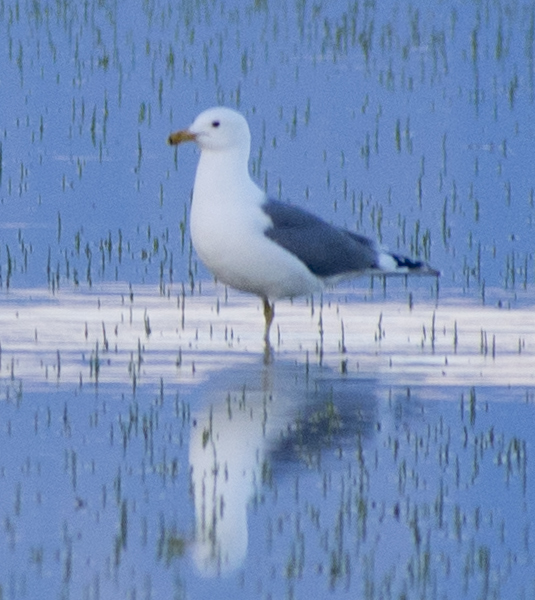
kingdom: Animalia
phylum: Chordata
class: Aves
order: Charadriiformes
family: Laridae
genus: Larus
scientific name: Larus californicus
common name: California gull
